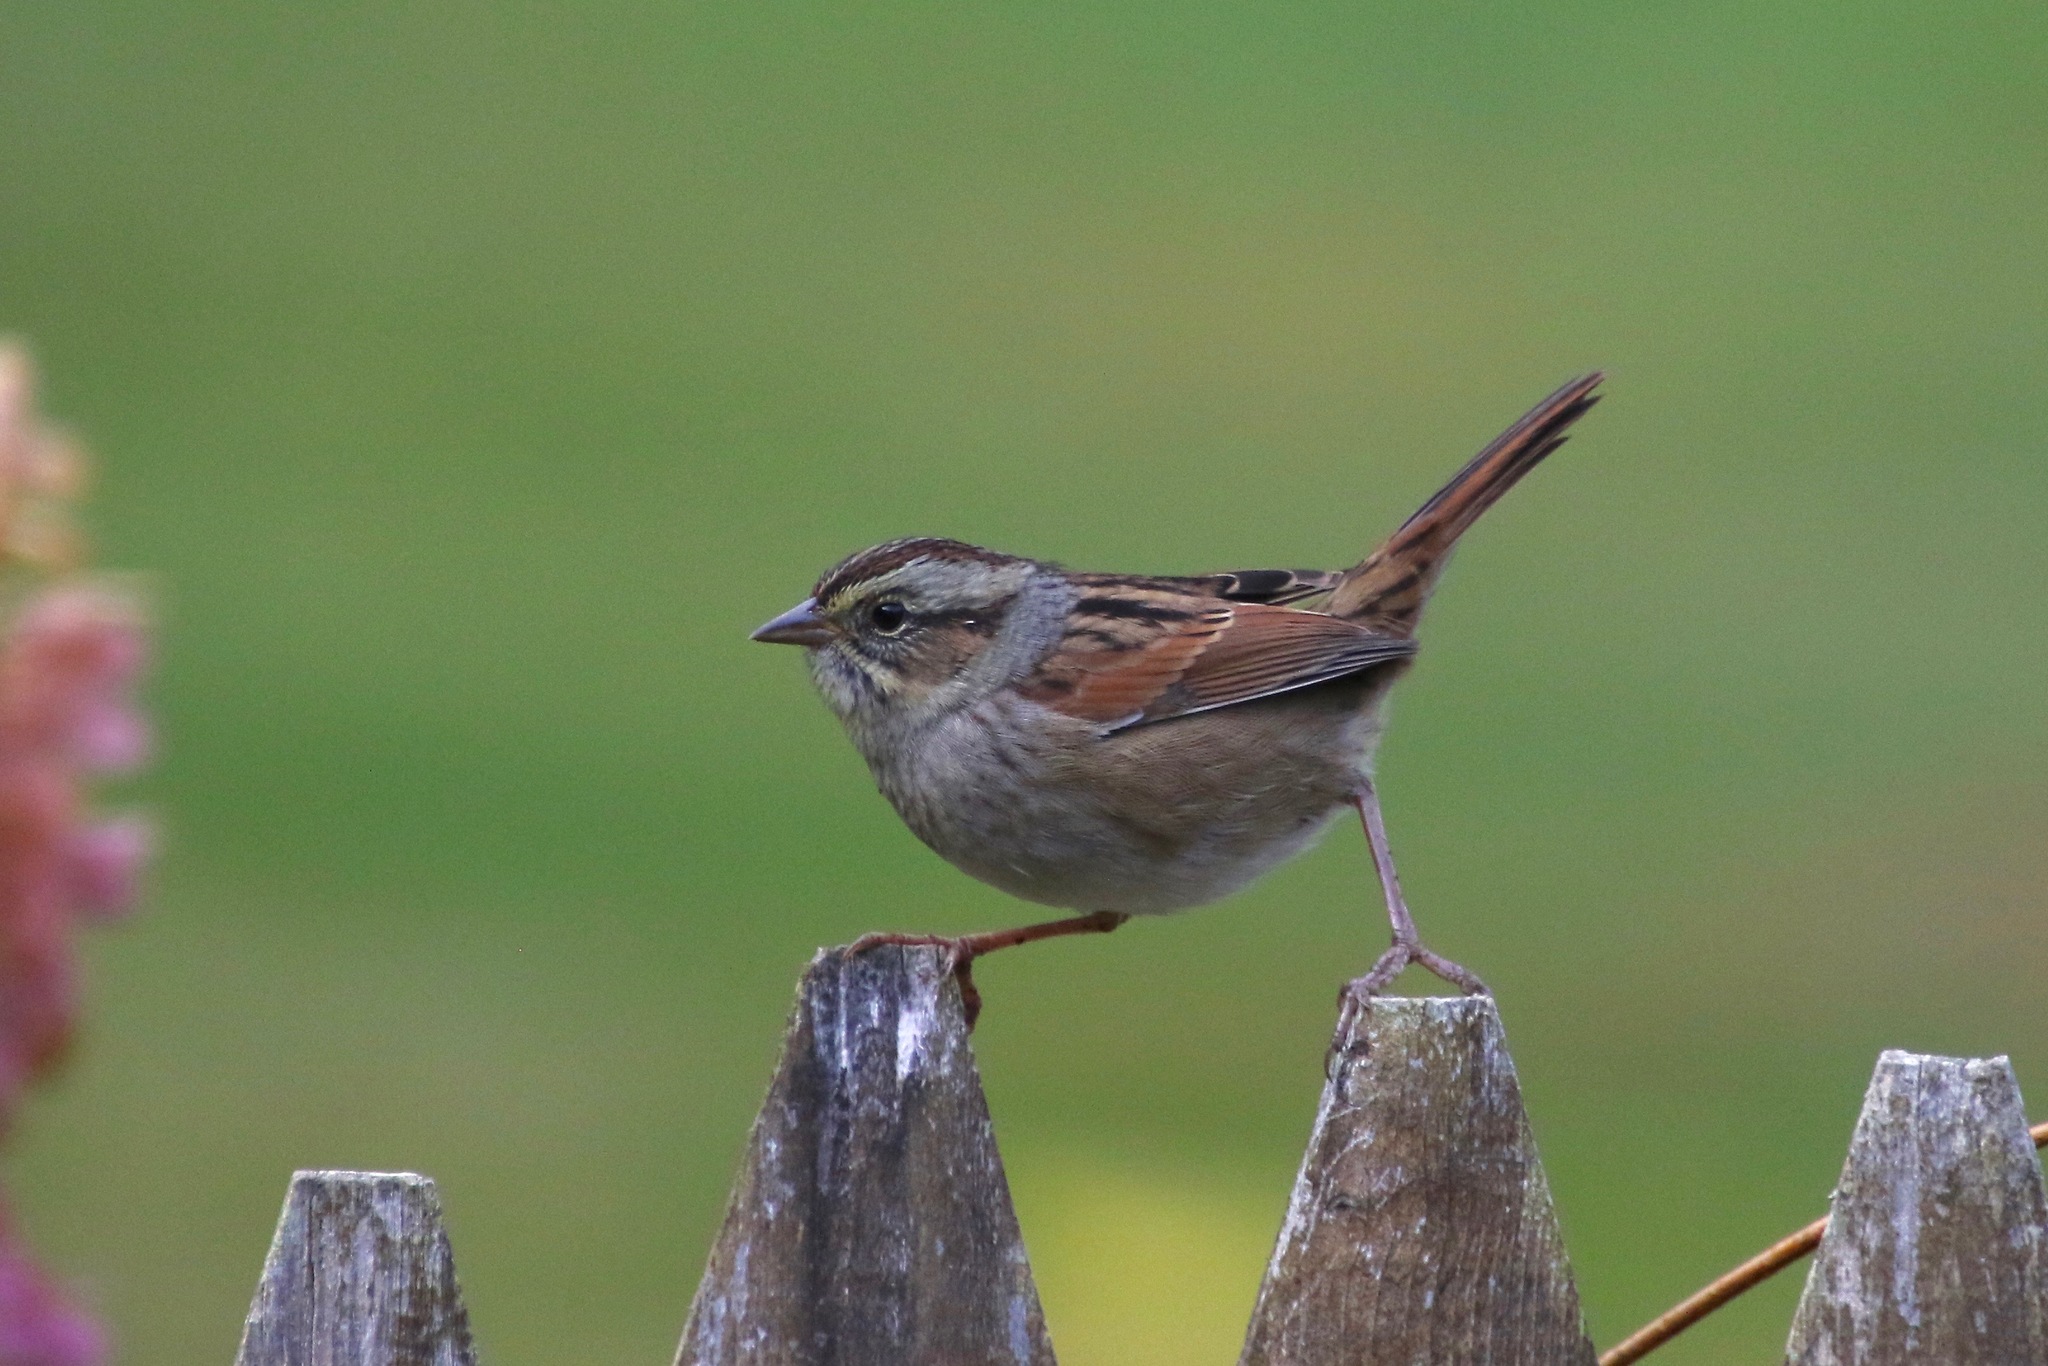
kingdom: Animalia
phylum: Chordata
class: Aves
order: Passeriformes
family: Passerellidae
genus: Melospiza
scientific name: Melospiza georgiana
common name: Swamp sparrow
